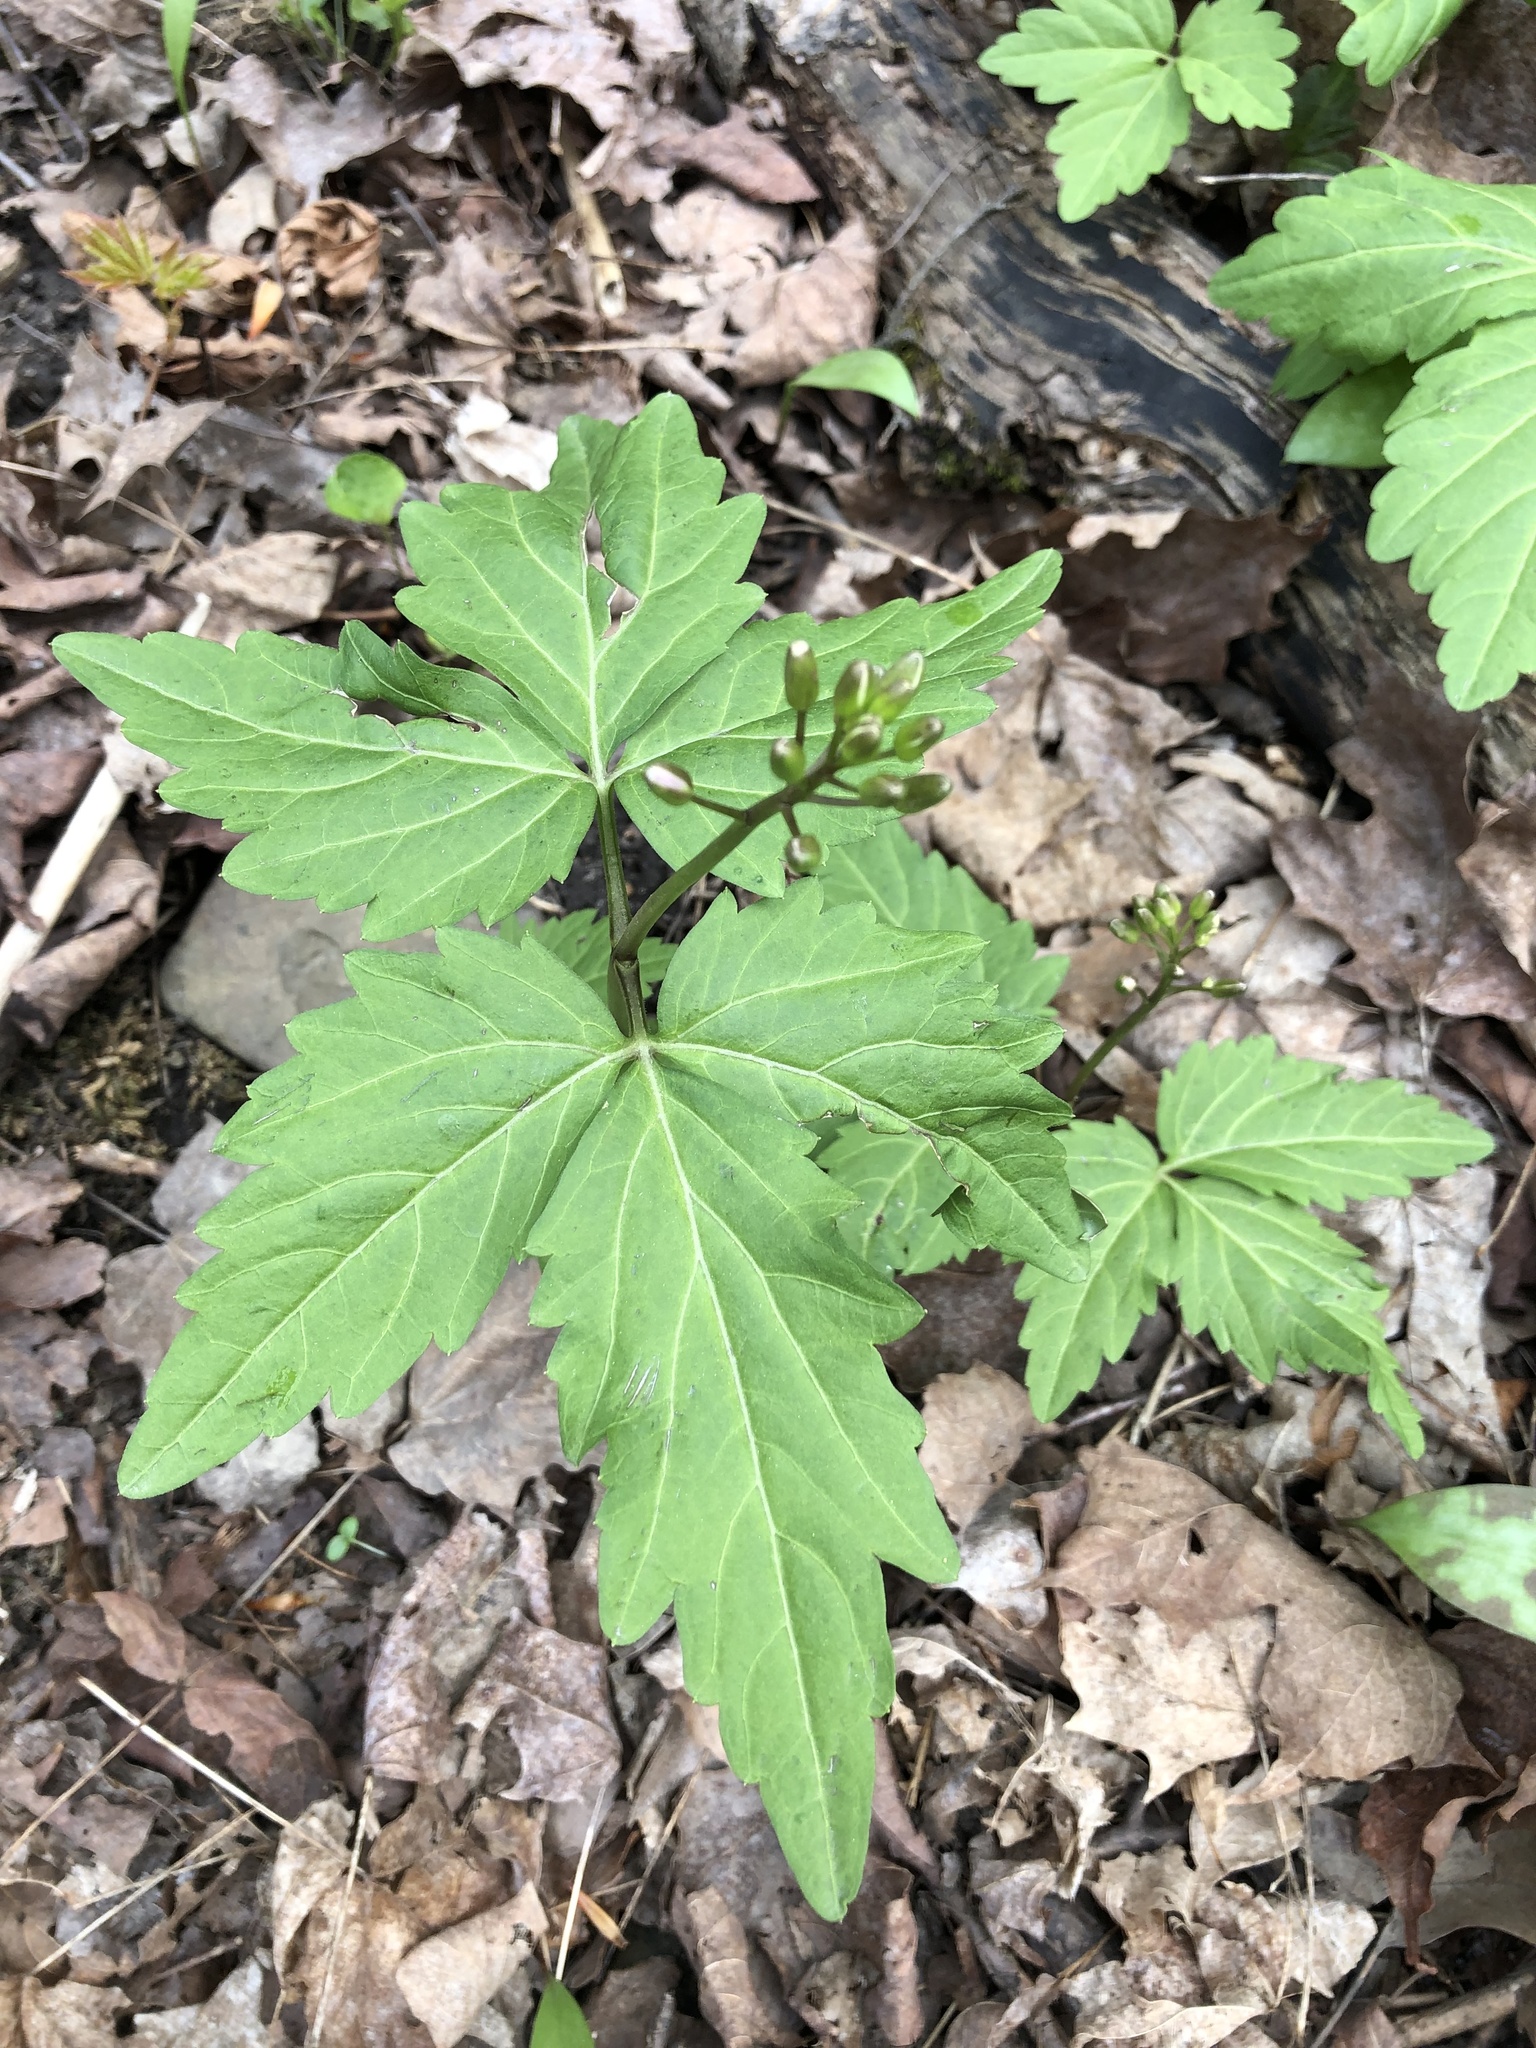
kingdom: Plantae
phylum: Tracheophyta
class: Magnoliopsida
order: Brassicales
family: Brassicaceae
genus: Cardamine
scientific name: Cardamine diphylla
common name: Broad-leaved toothwort
